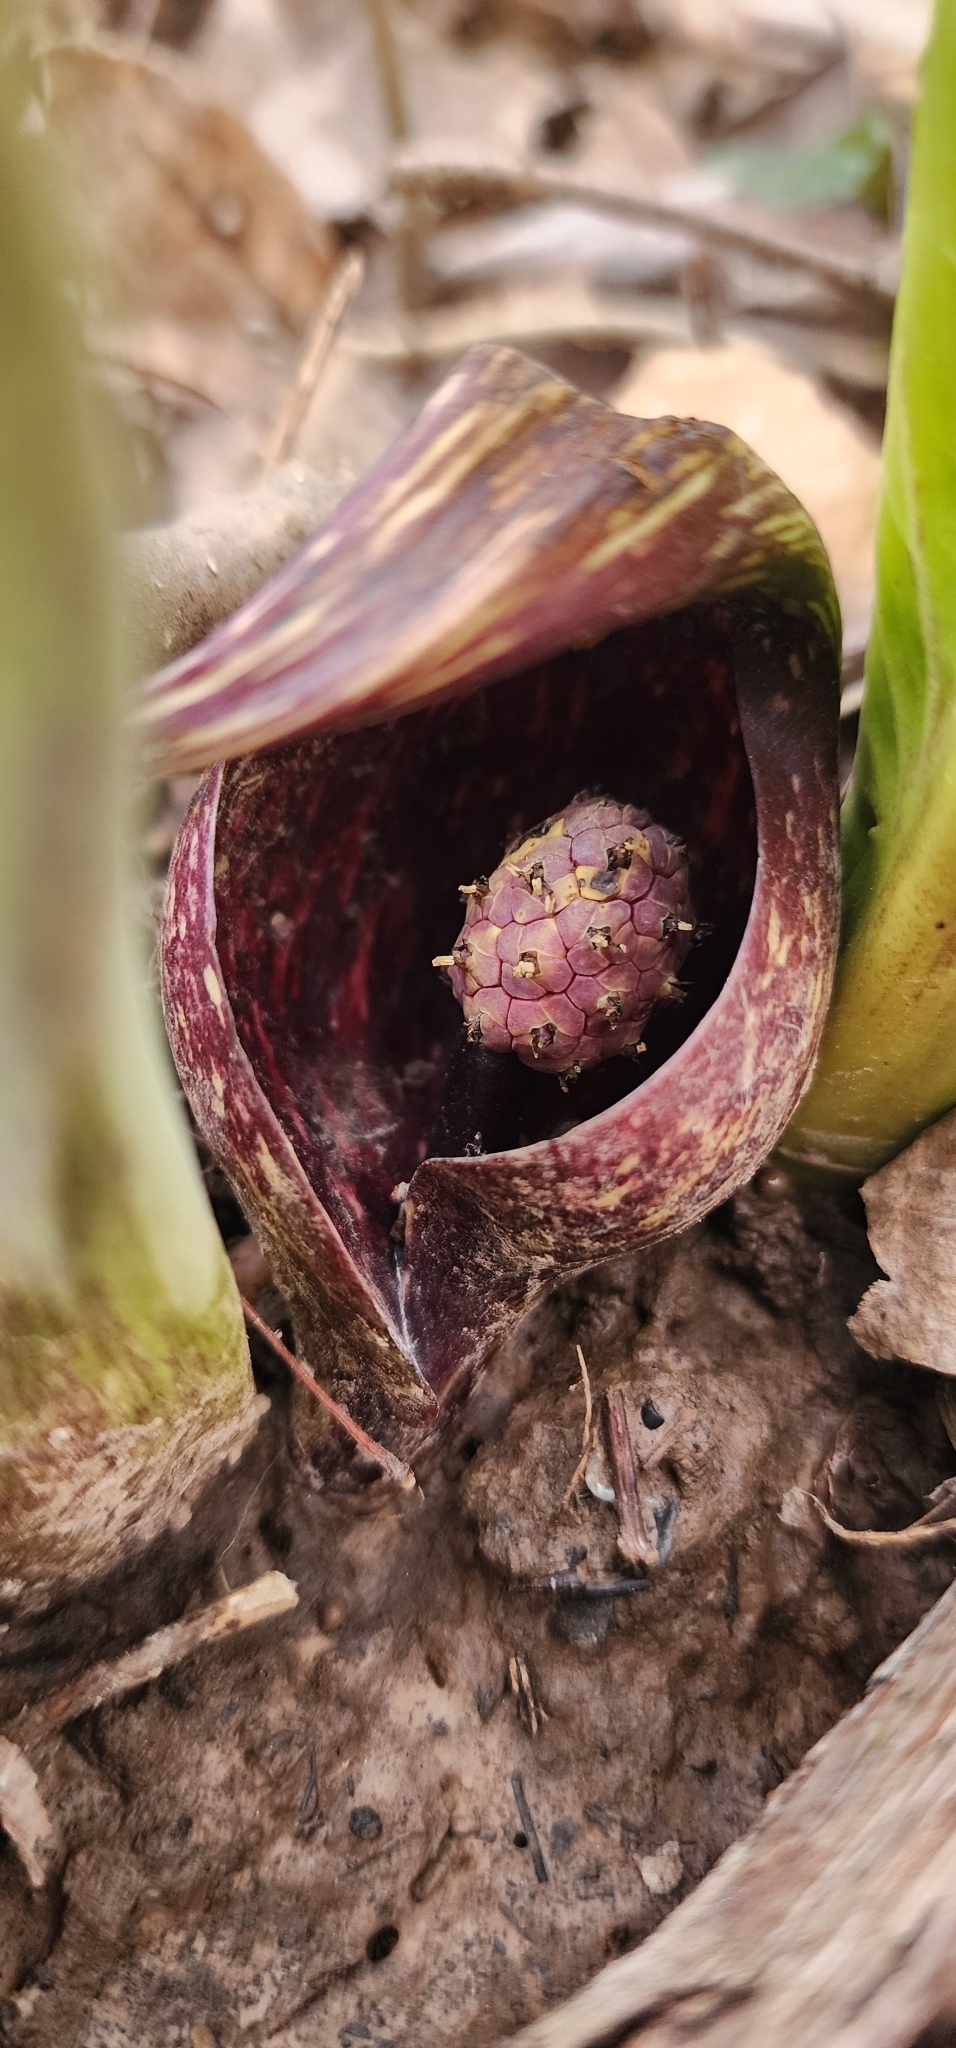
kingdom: Plantae
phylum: Tracheophyta
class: Liliopsida
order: Alismatales
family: Araceae
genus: Symplocarpus
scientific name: Symplocarpus foetidus
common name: Eastern skunk cabbage
